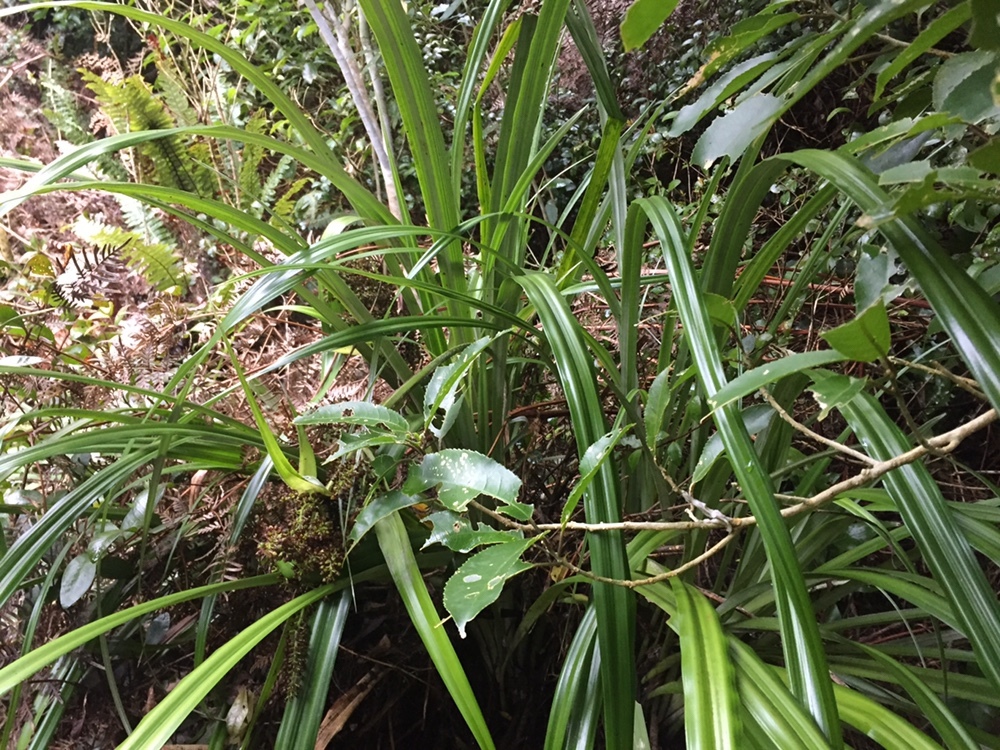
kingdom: Plantae
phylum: Tracheophyta
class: Liliopsida
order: Asparagales
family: Asteliaceae
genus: Astelia
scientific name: Astelia fragrans
